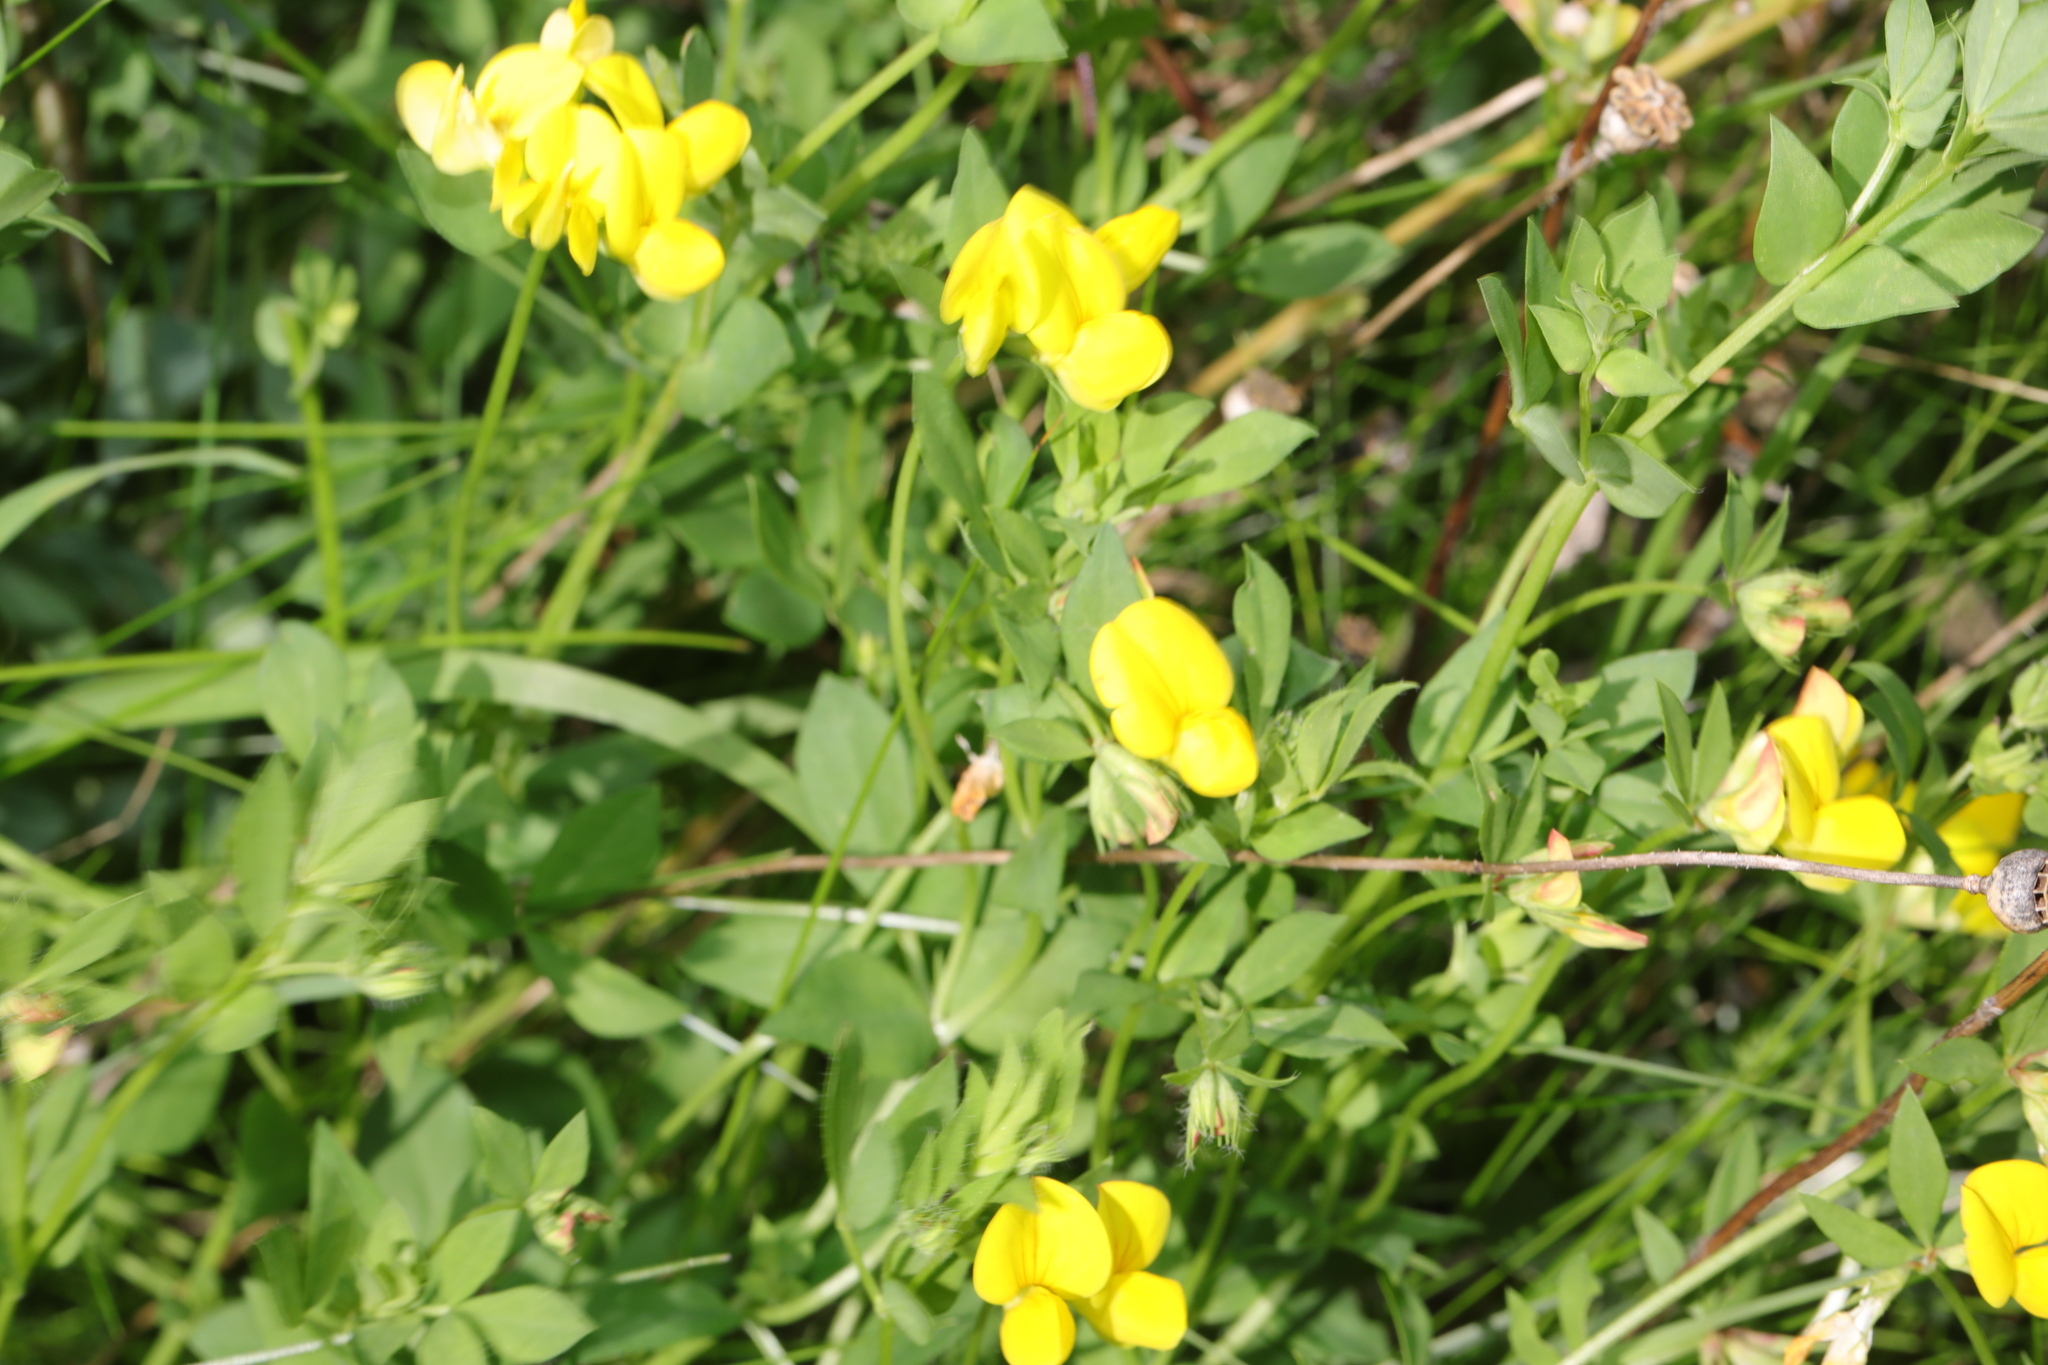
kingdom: Plantae
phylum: Tracheophyta
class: Magnoliopsida
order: Fabales
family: Fabaceae
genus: Lotus
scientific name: Lotus corniculatus
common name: Common bird's-foot-trefoil
